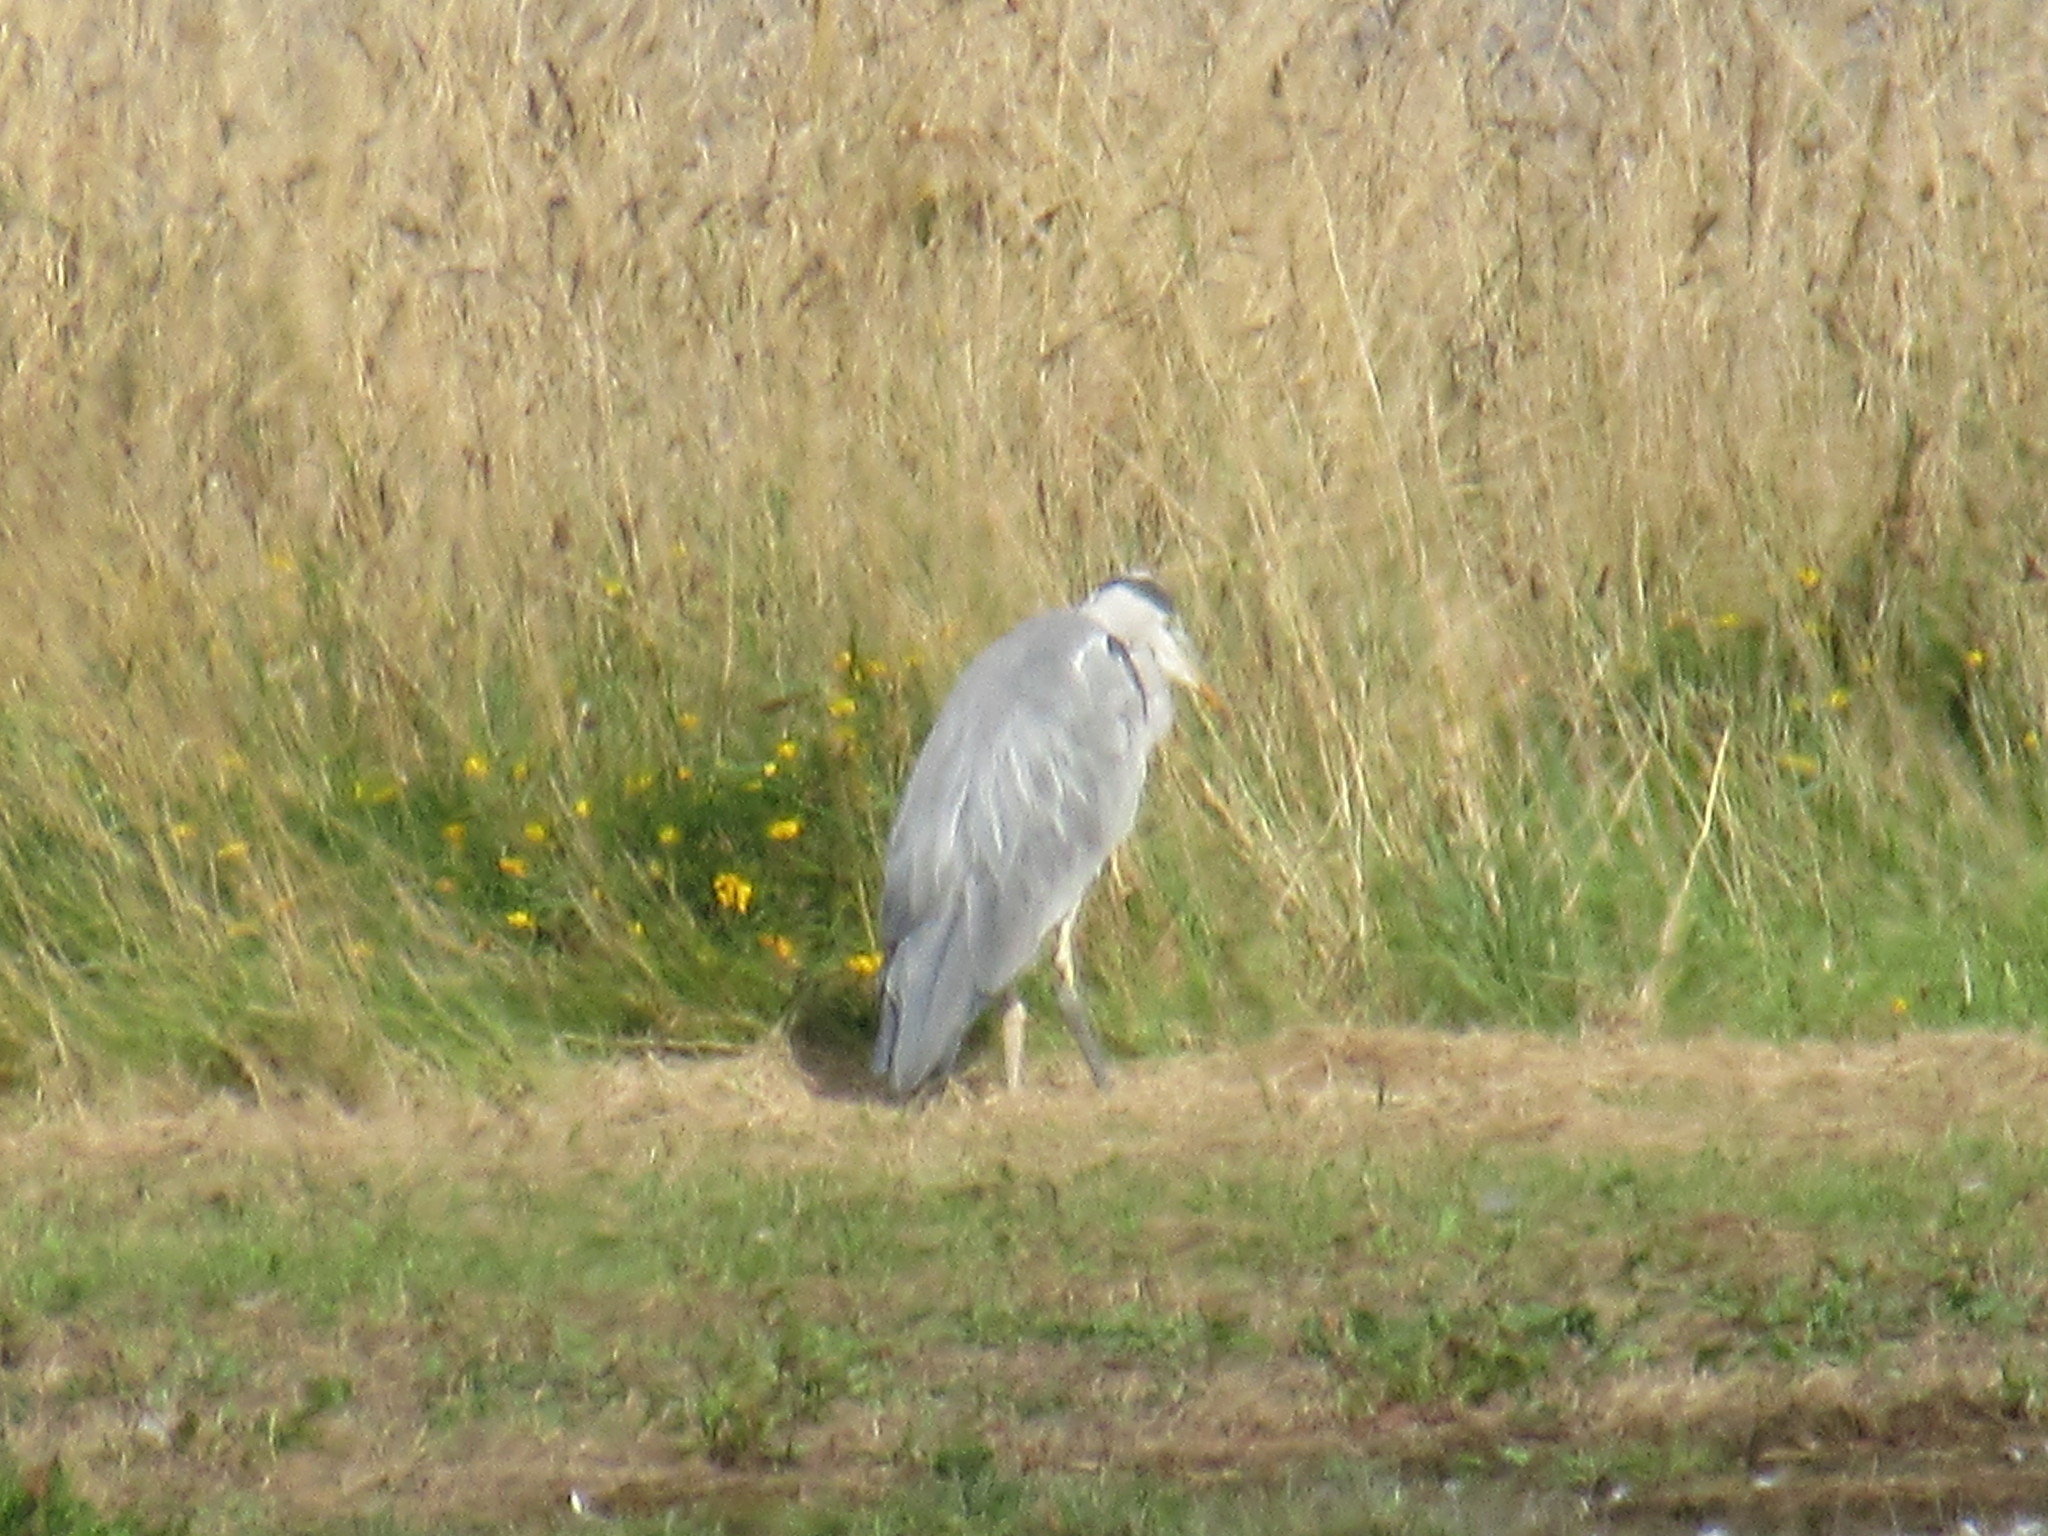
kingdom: Animalia
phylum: Chordata
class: Aves
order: Pelecaniformes
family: Ardeidae
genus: Ardea
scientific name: Ardea cinerea
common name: Grey heron
